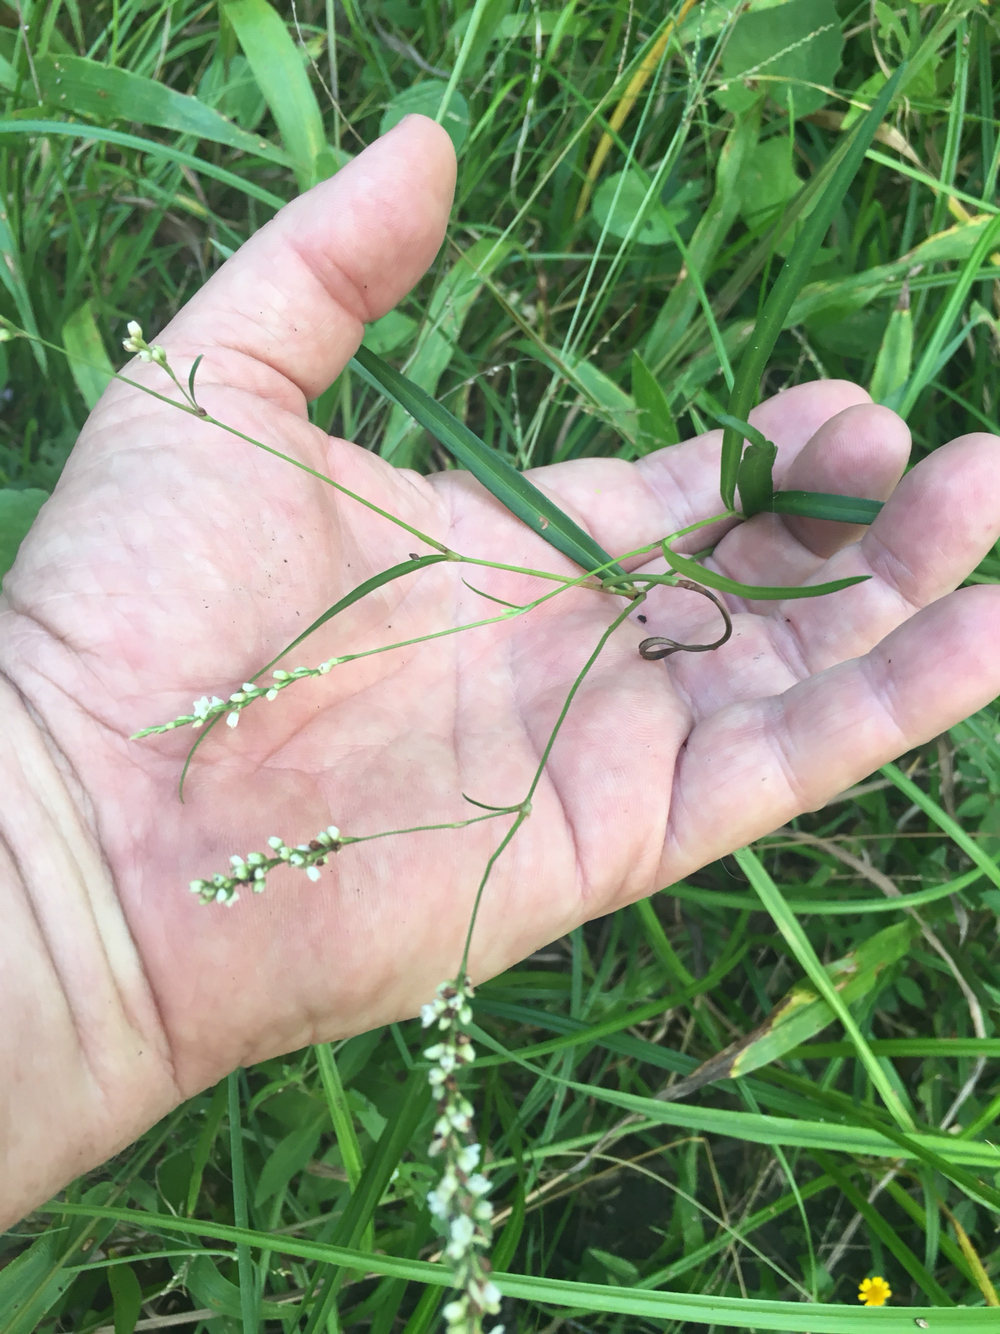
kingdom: Plantae
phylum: Tracheophyta
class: Magnoliopsida
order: Caryophyllales
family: Polygonaceae
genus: Persicaria
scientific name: Persicaria hydropiperoides
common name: Swamp smartweed
